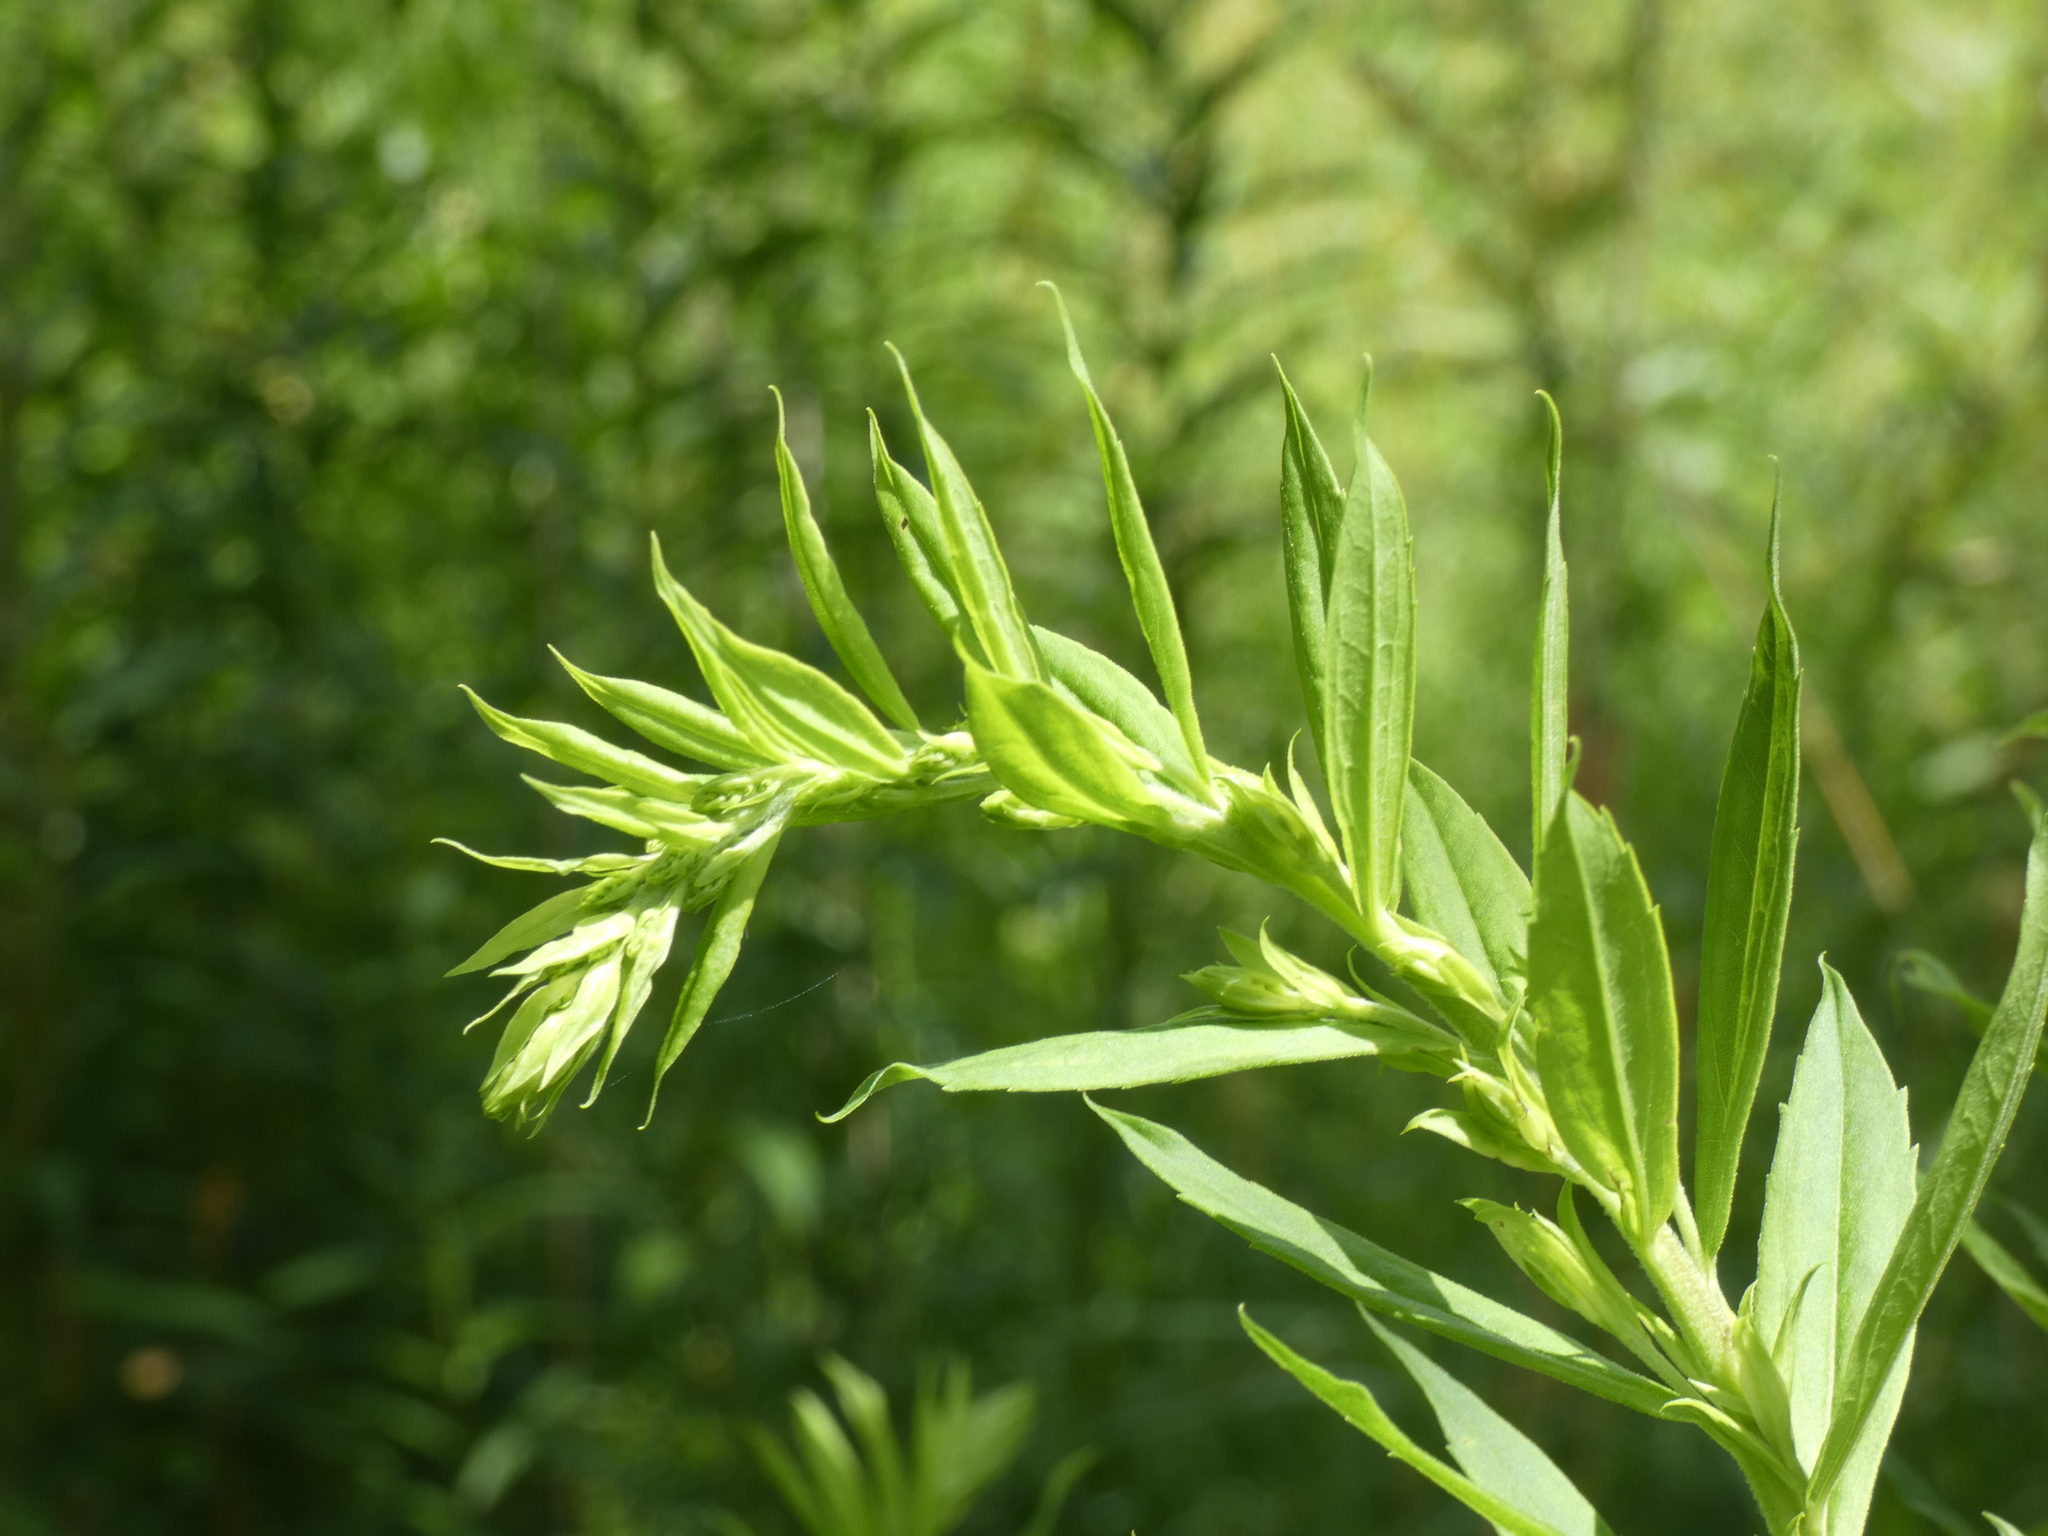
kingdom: Plantae
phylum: Tracheophyta
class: Magnoliopsida
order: Asterales
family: Asteraceae
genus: Solidago
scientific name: Solidago canadensis
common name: Canada goldenrod
